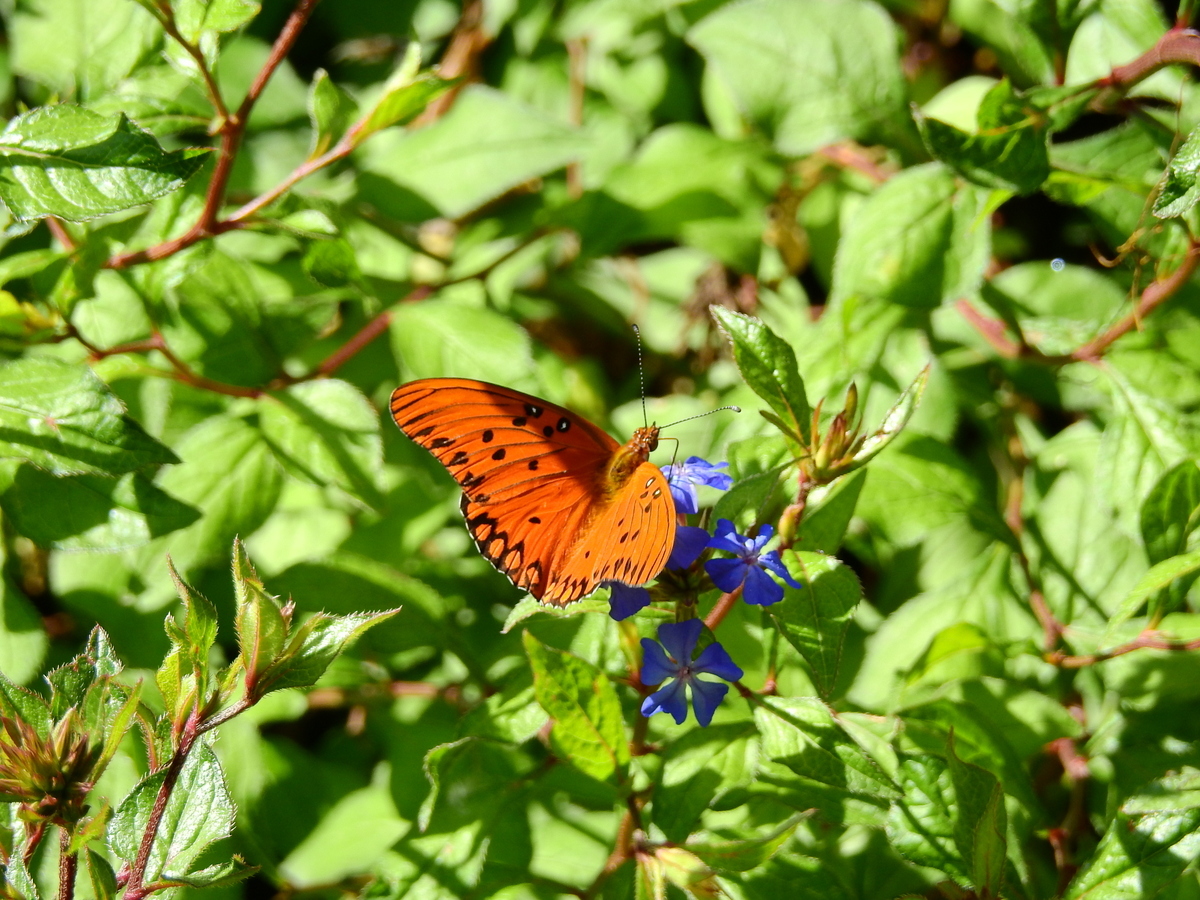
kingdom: Animalia
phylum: Arthropoda
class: Insecta
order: Lepidoptera
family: Nymphalidae
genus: Dione
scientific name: Dione vanillae
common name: Gulf fritillary
